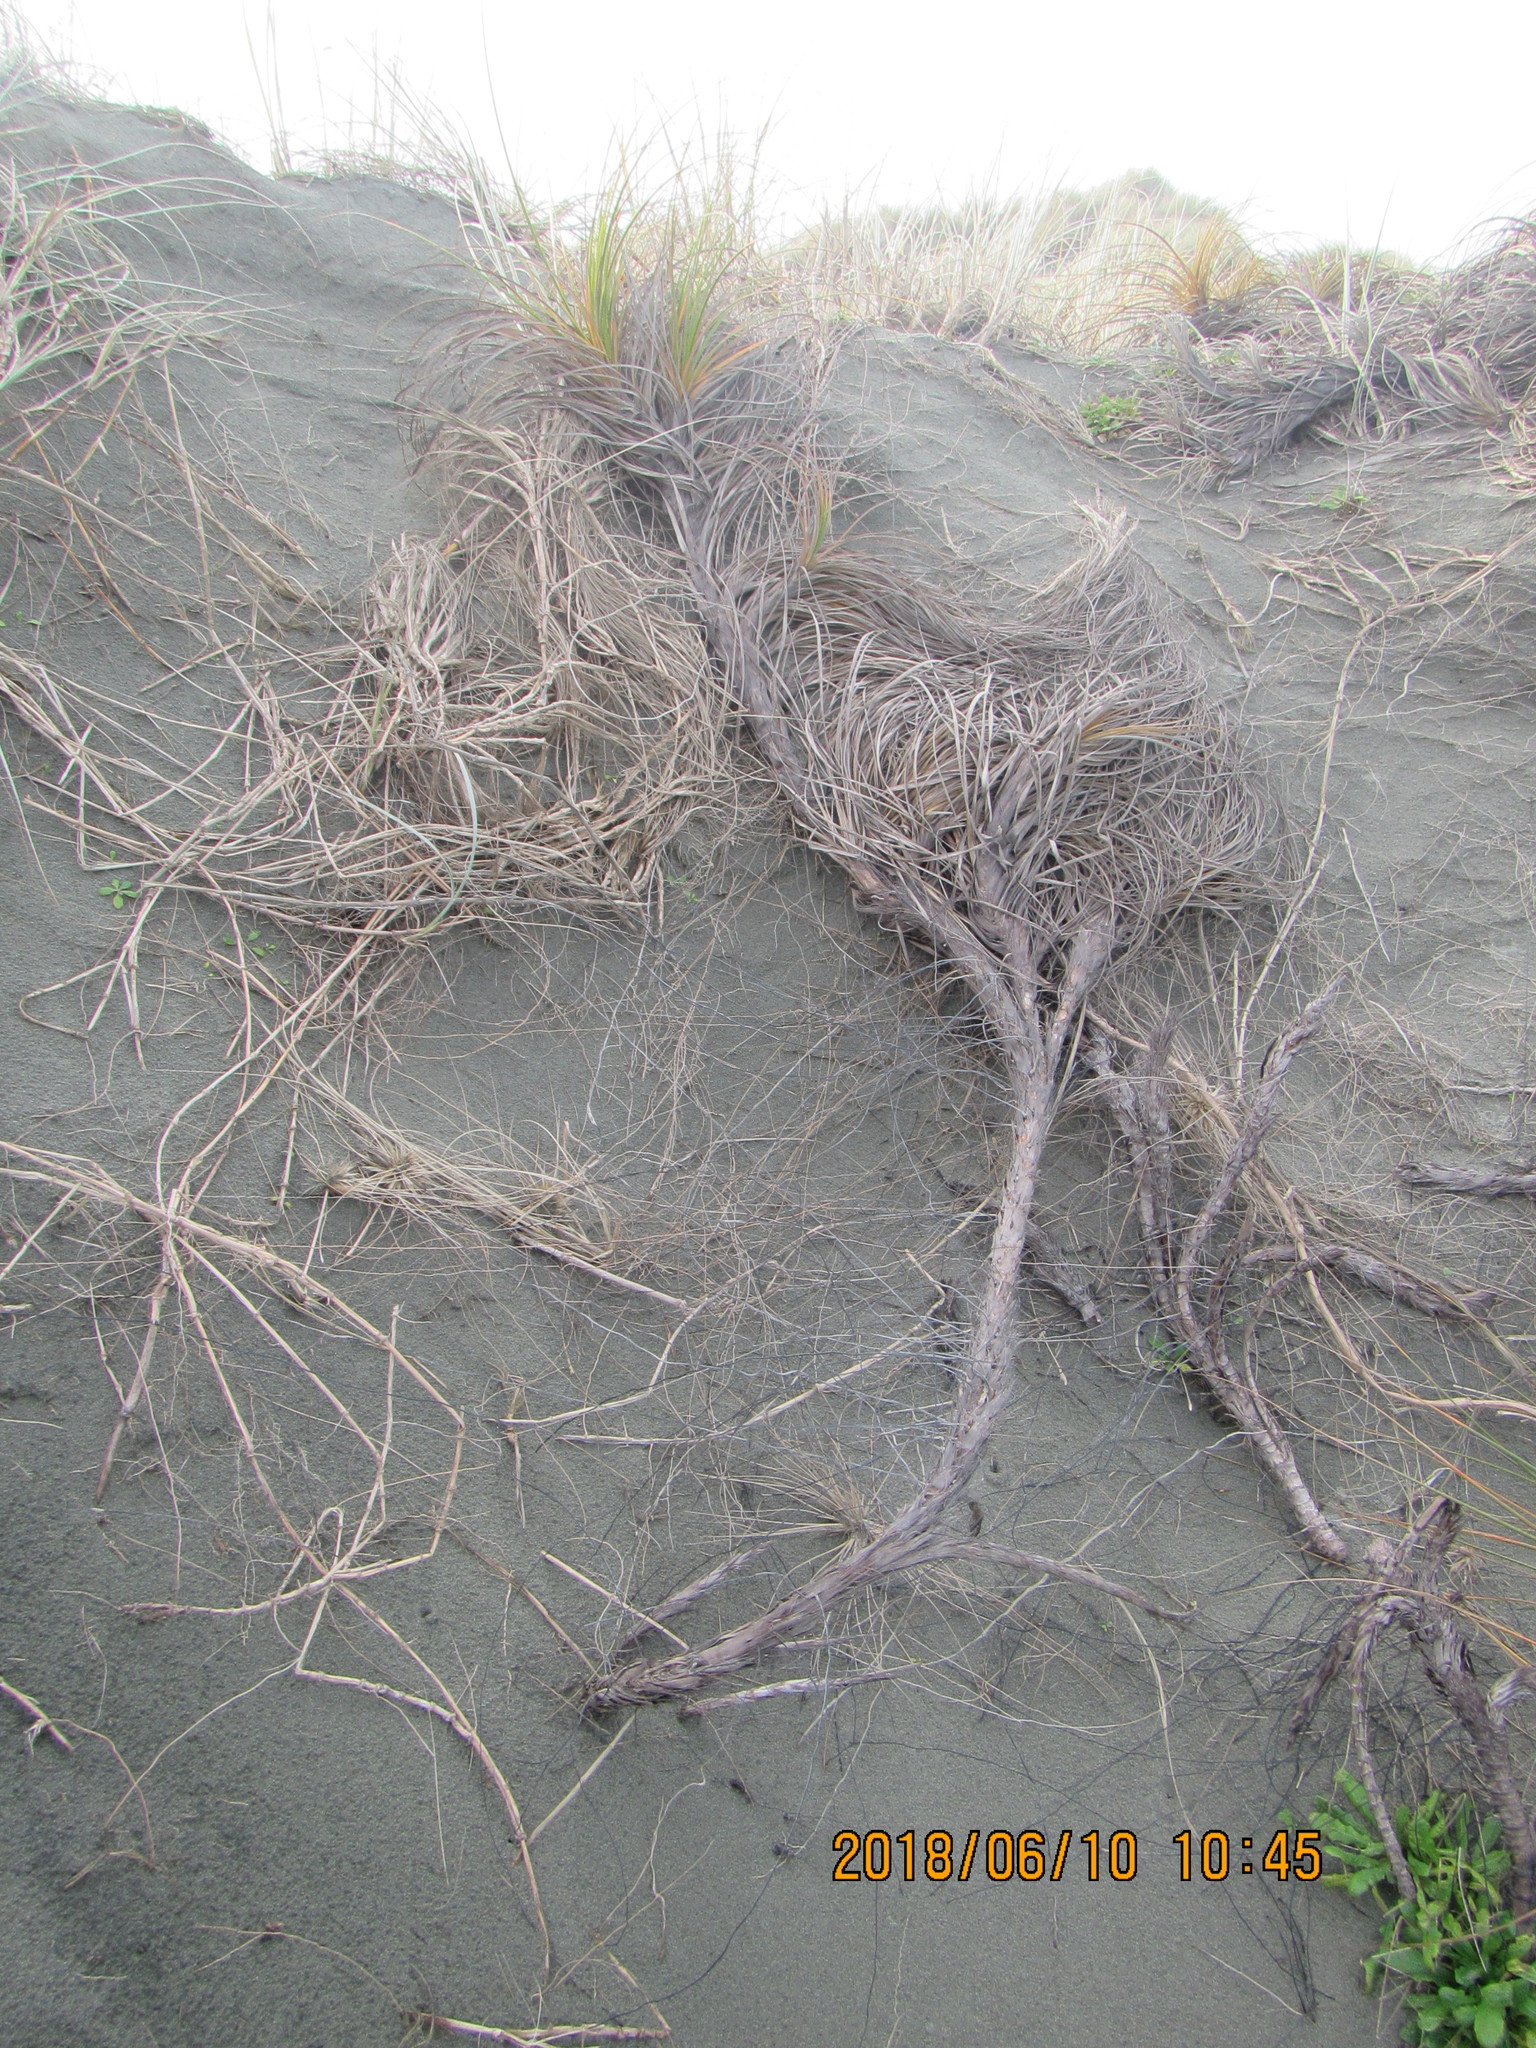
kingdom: Plantae
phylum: Tracheophyta
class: Liliopsida
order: Poales
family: Cyperaceae
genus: Ficinia
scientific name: Ficinia spiralis
